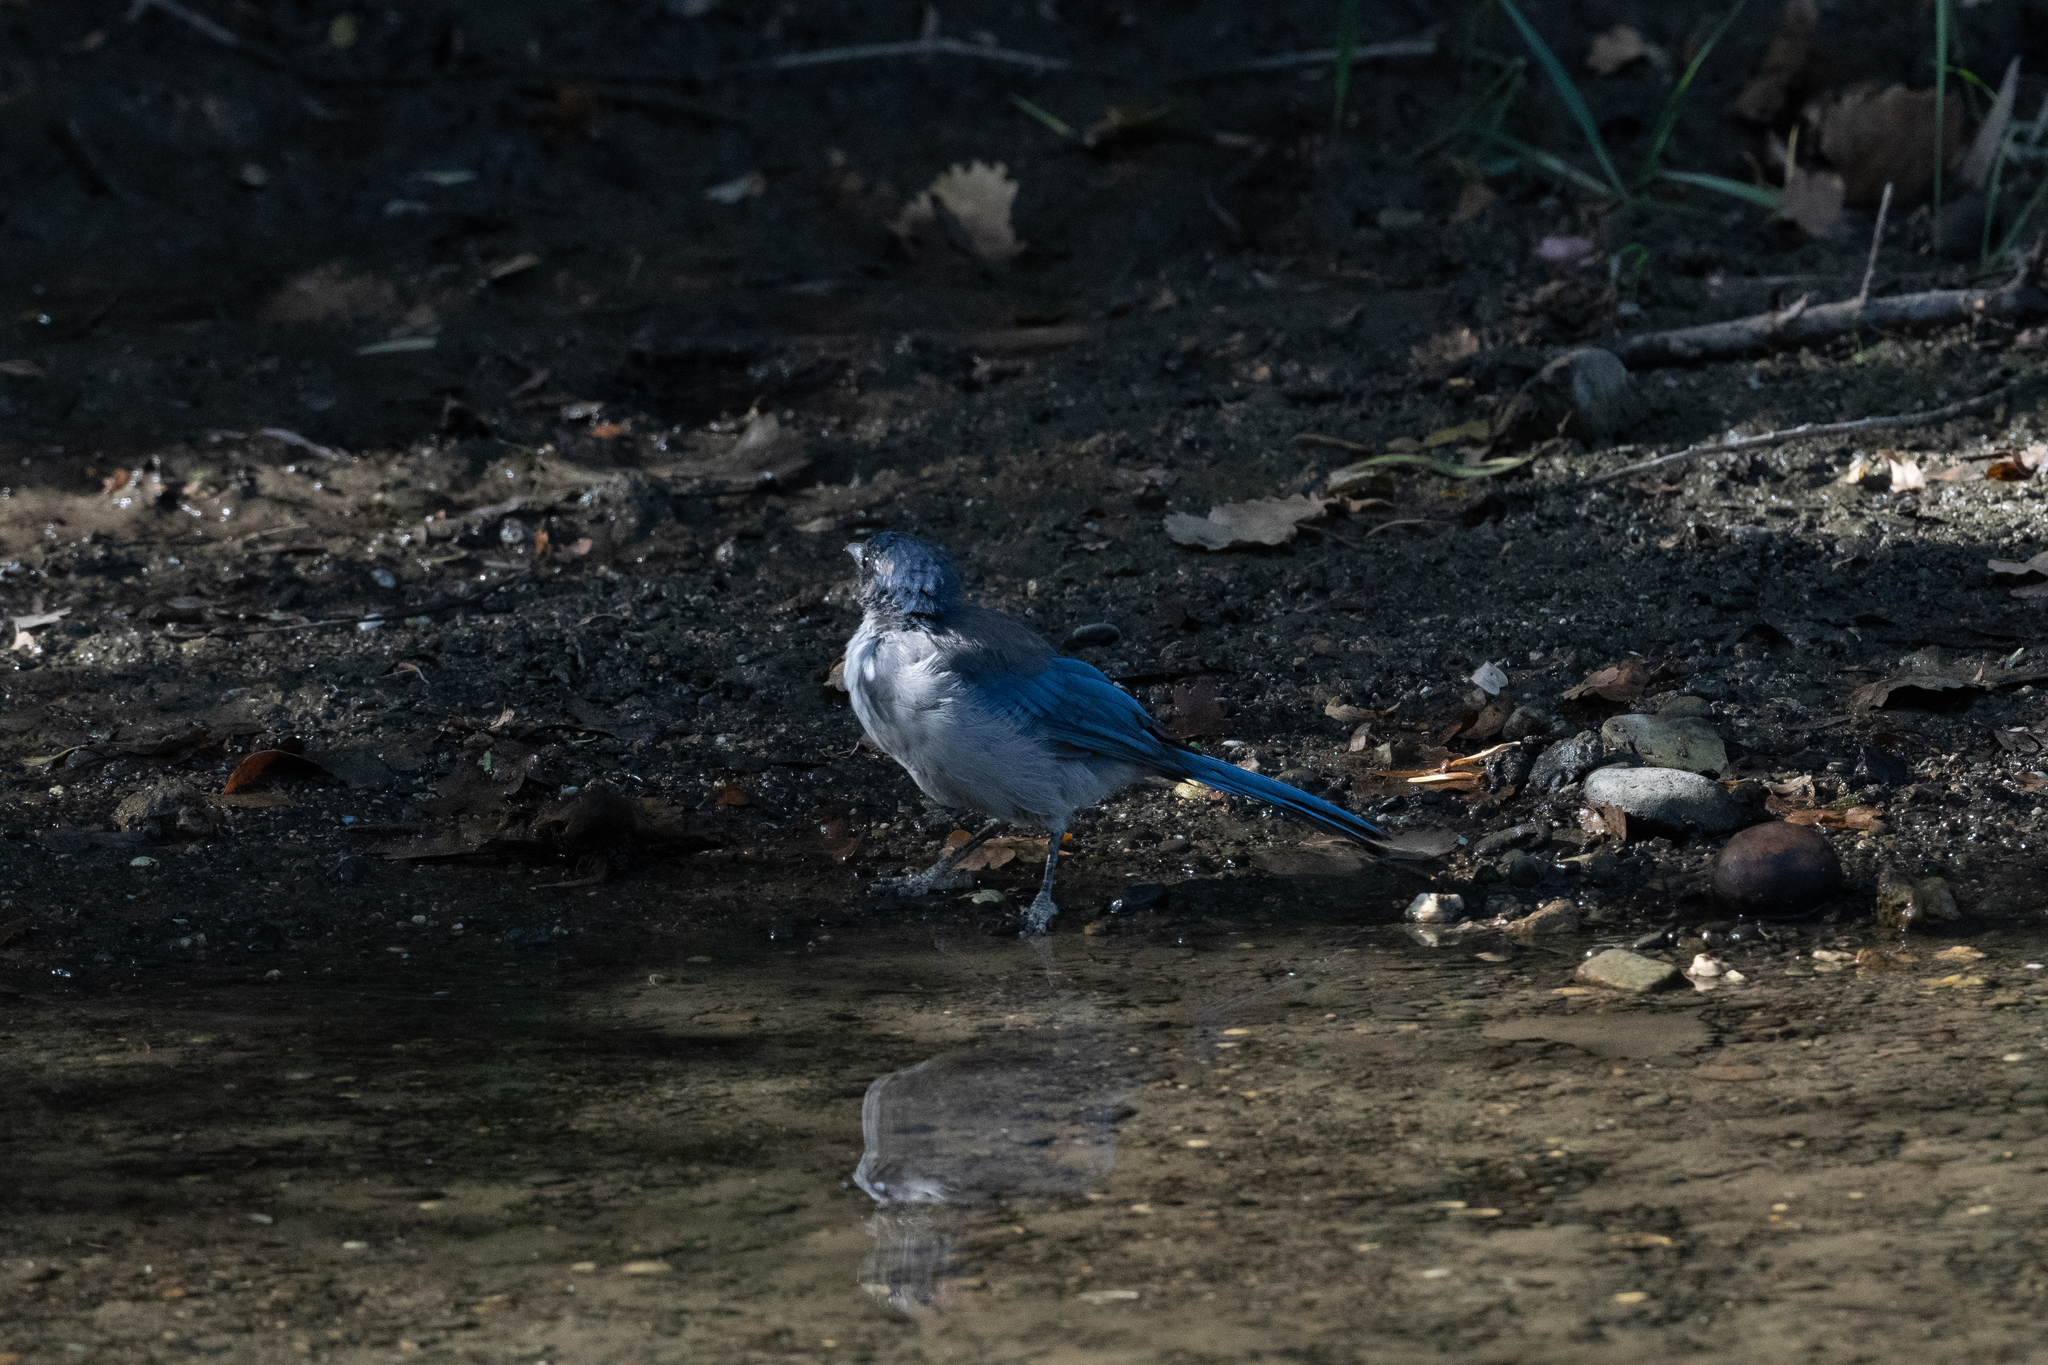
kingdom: Animalia
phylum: Chordata
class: Aves
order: Passeriformes
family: Corvidae
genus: Aphelocoma
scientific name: Aphelocoma californica
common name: California scrub-jay
